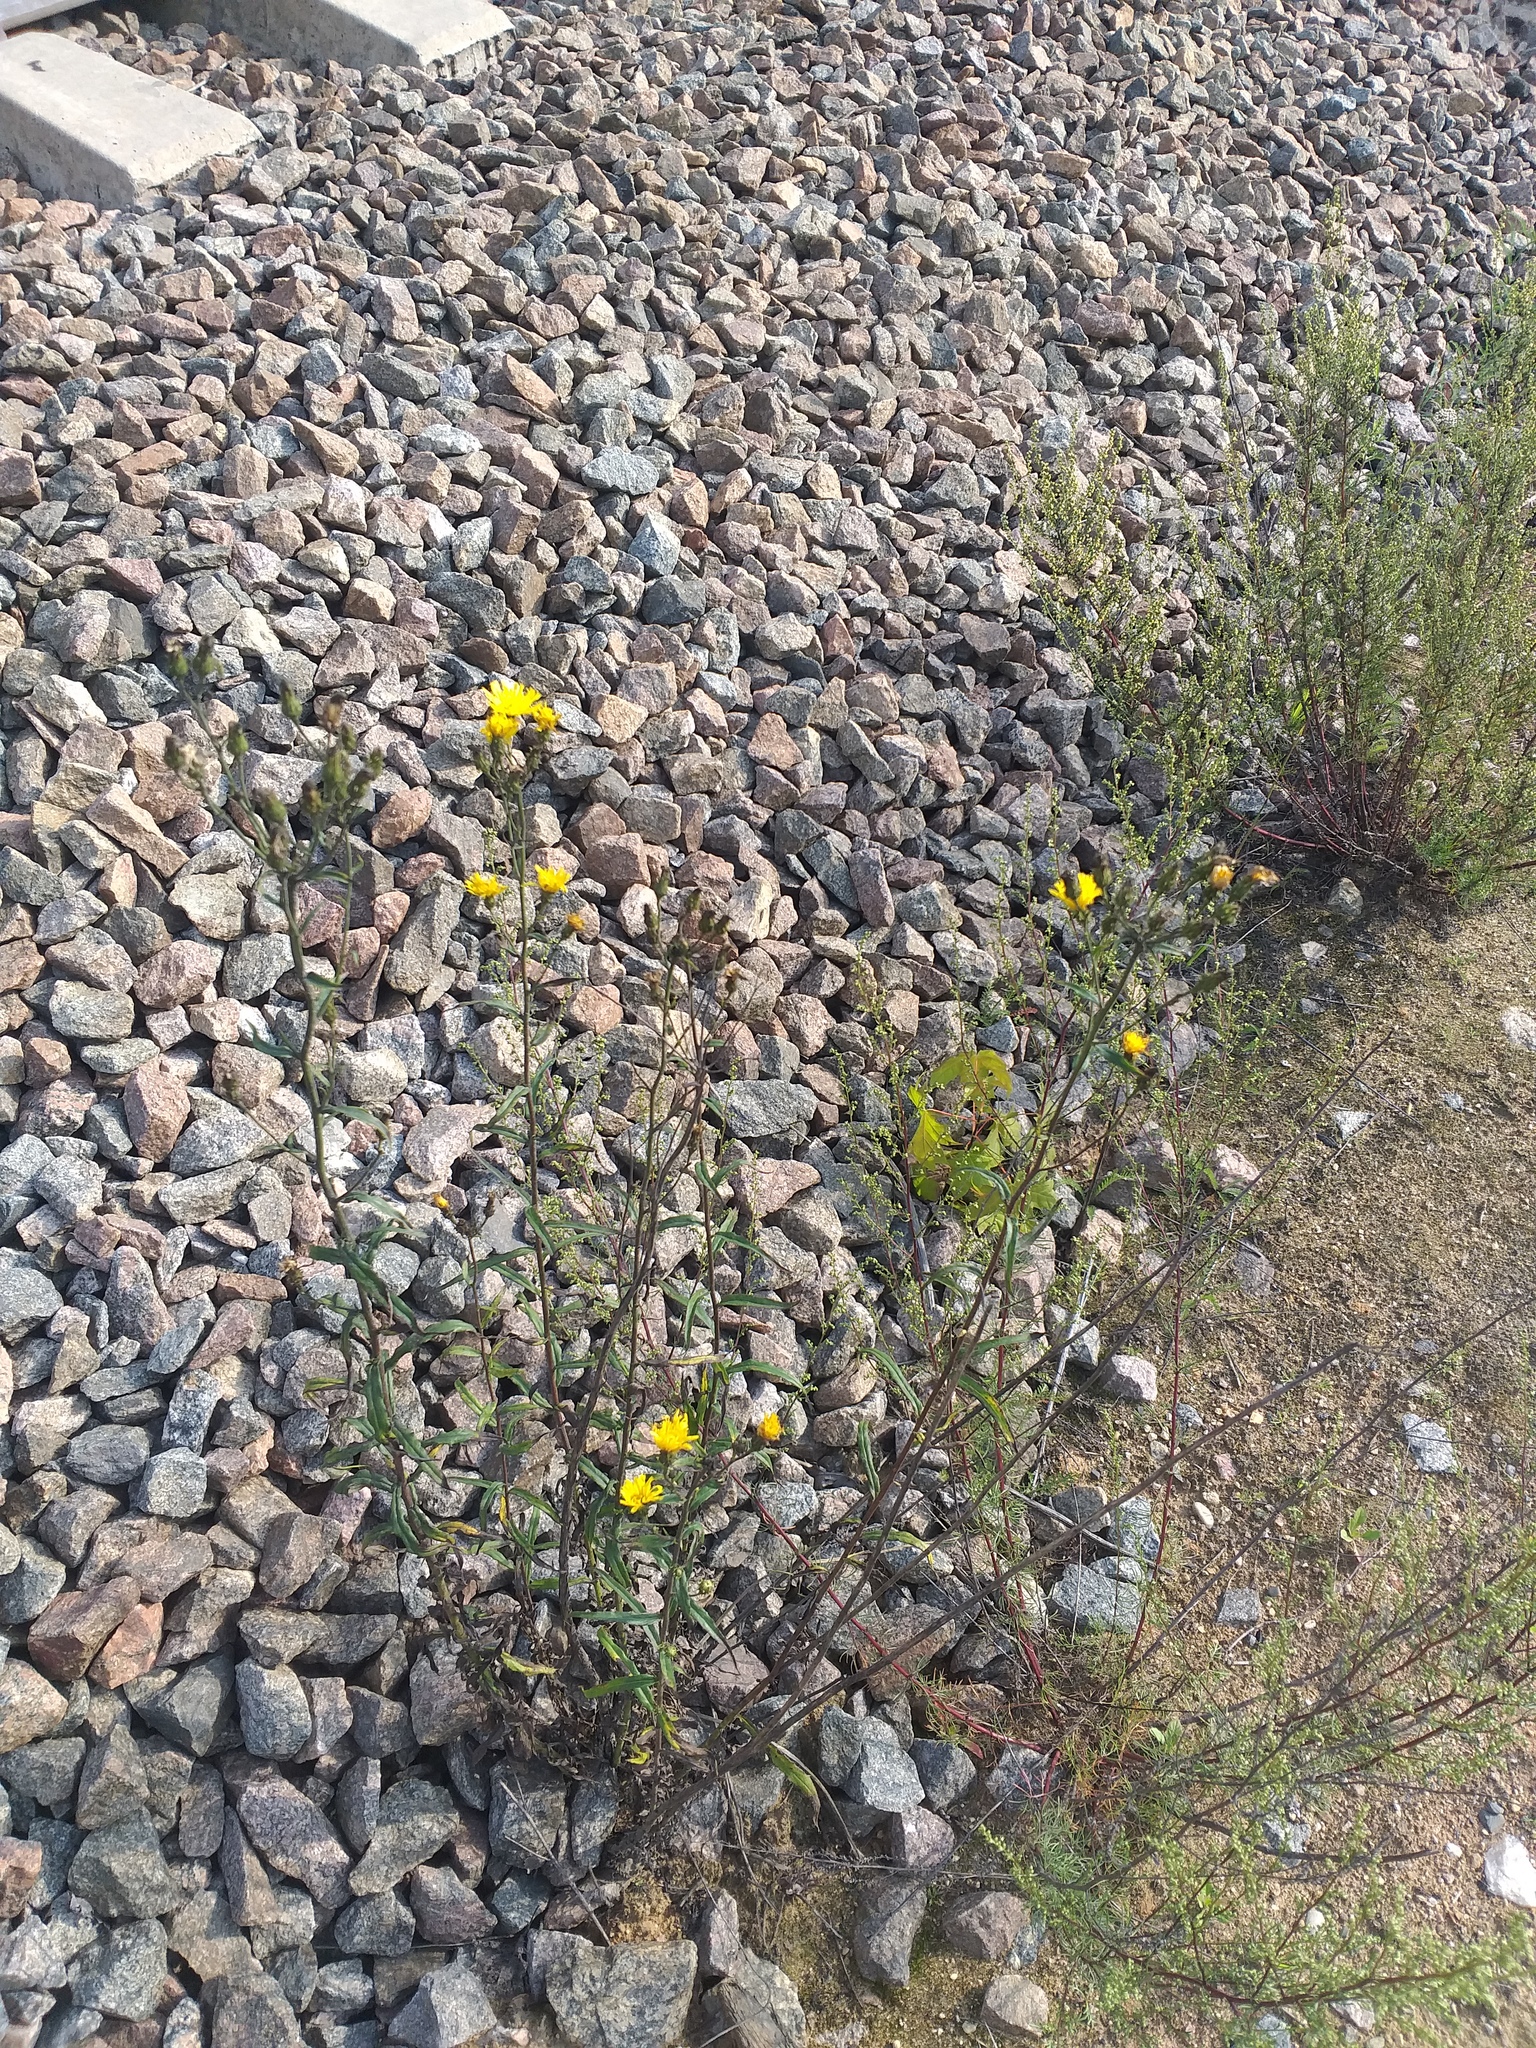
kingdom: Plantae
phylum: Tracheophyta
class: Magnoliopsida
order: Asterales
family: Asteraceae
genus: Hieracium
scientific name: Hieracium umbellatum
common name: Northern hawkweed
